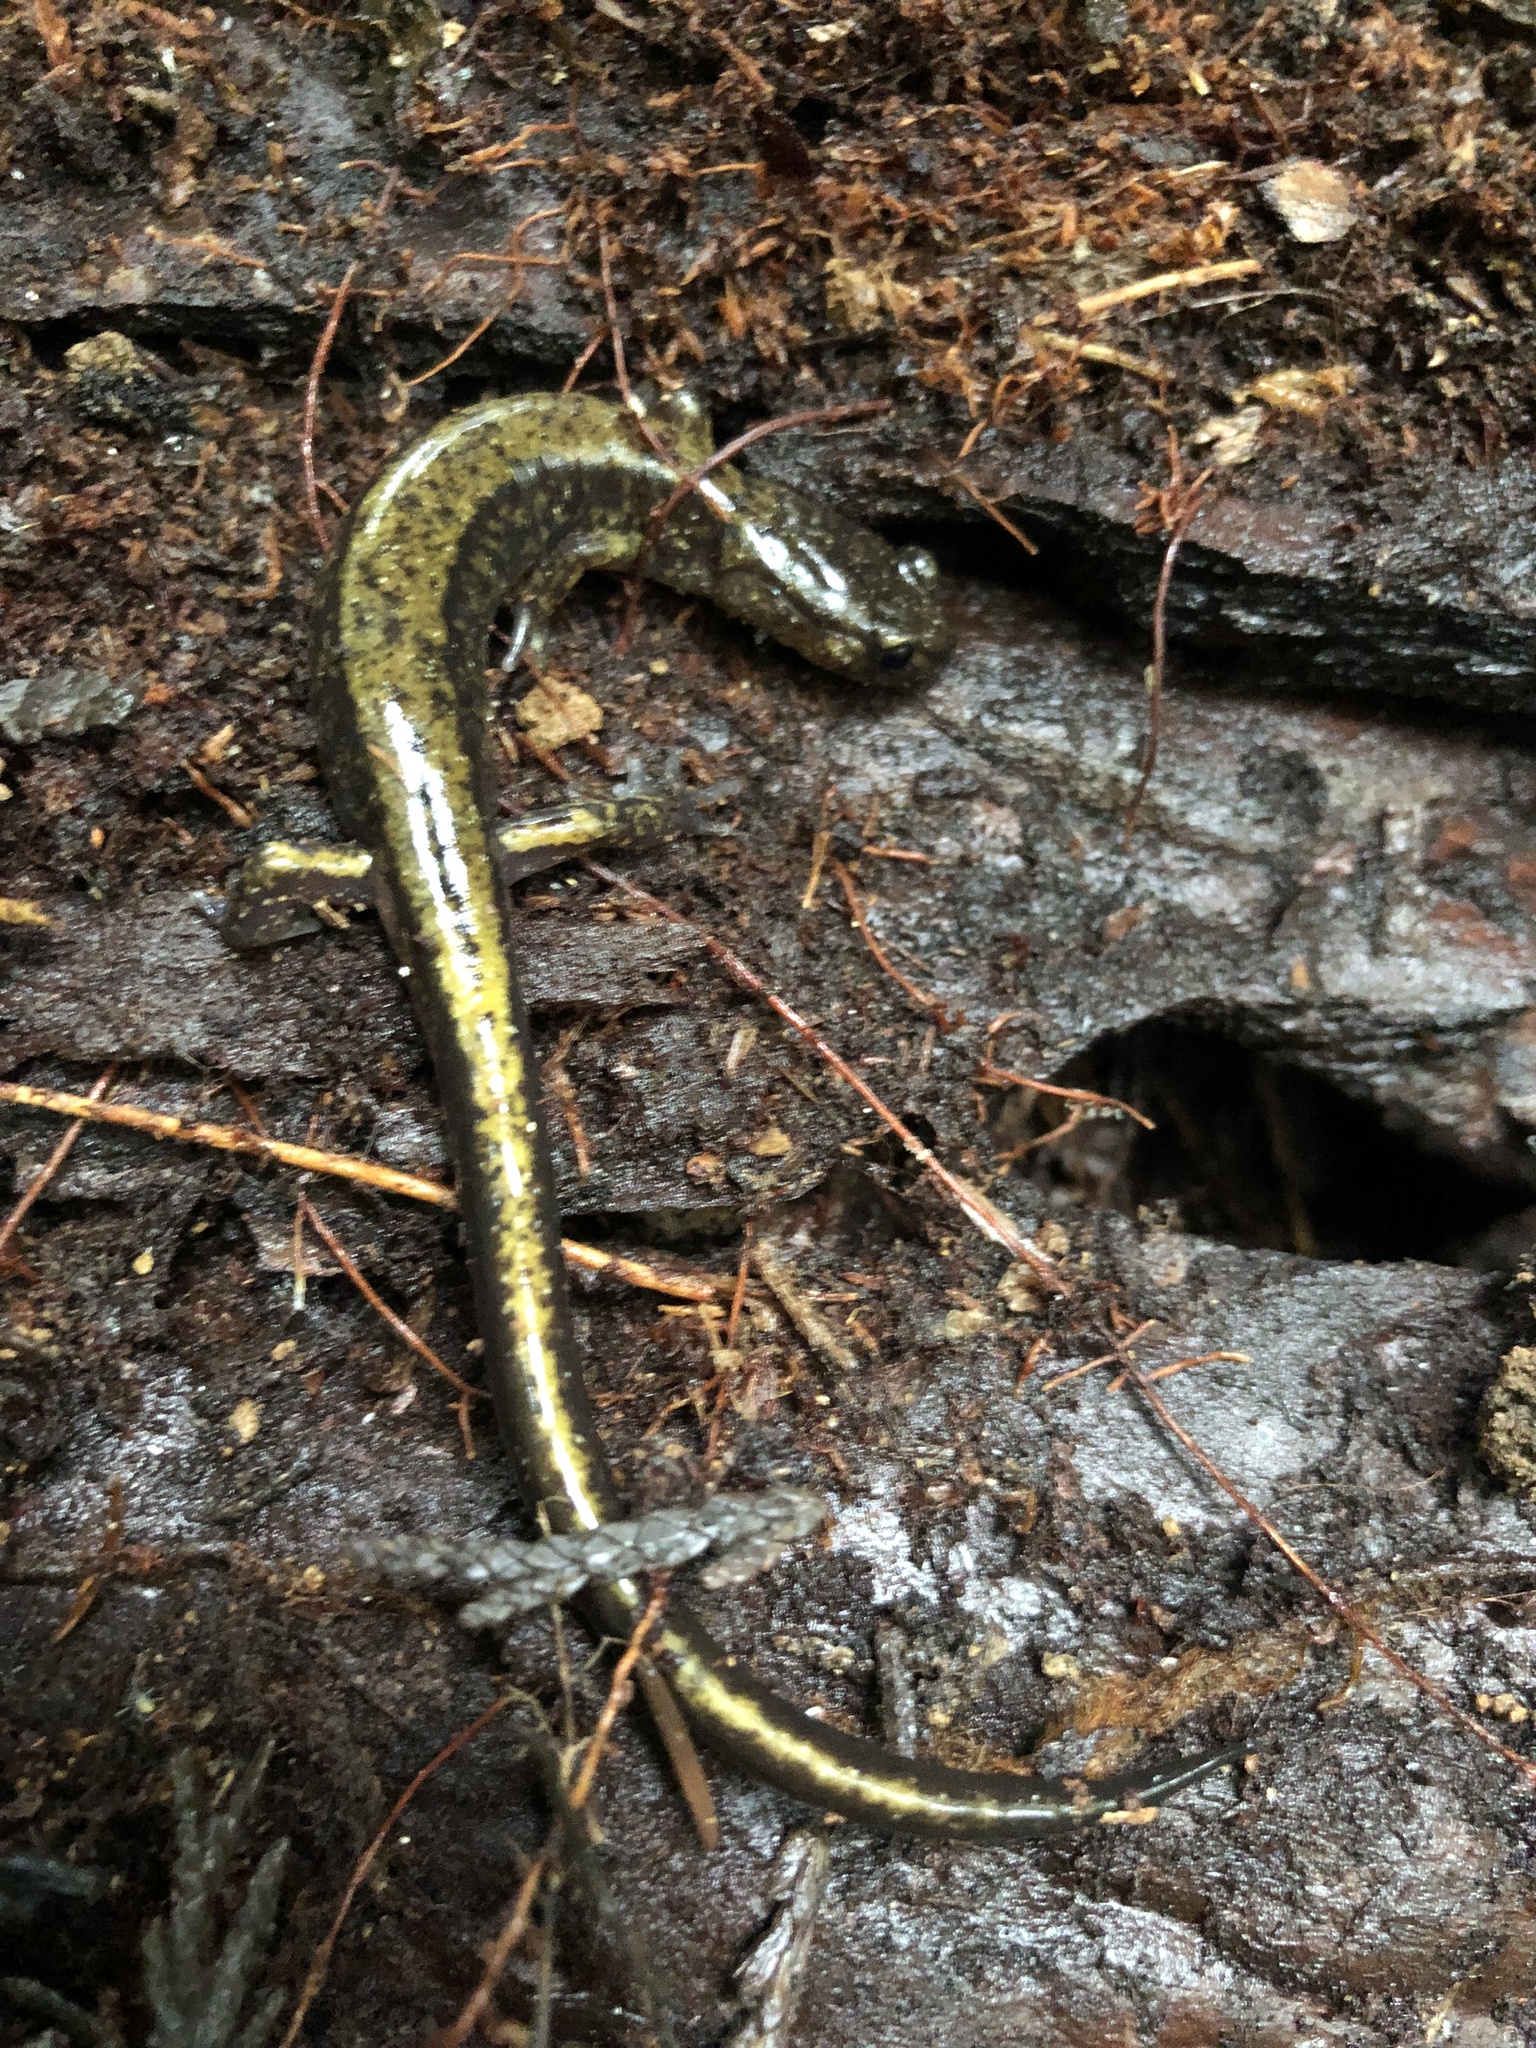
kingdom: Animalia
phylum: Chordata
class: Amphibia
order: Caudata
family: Plethodontidae
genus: Plethodon
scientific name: Plethodon dunni
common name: Dunn's salamander
